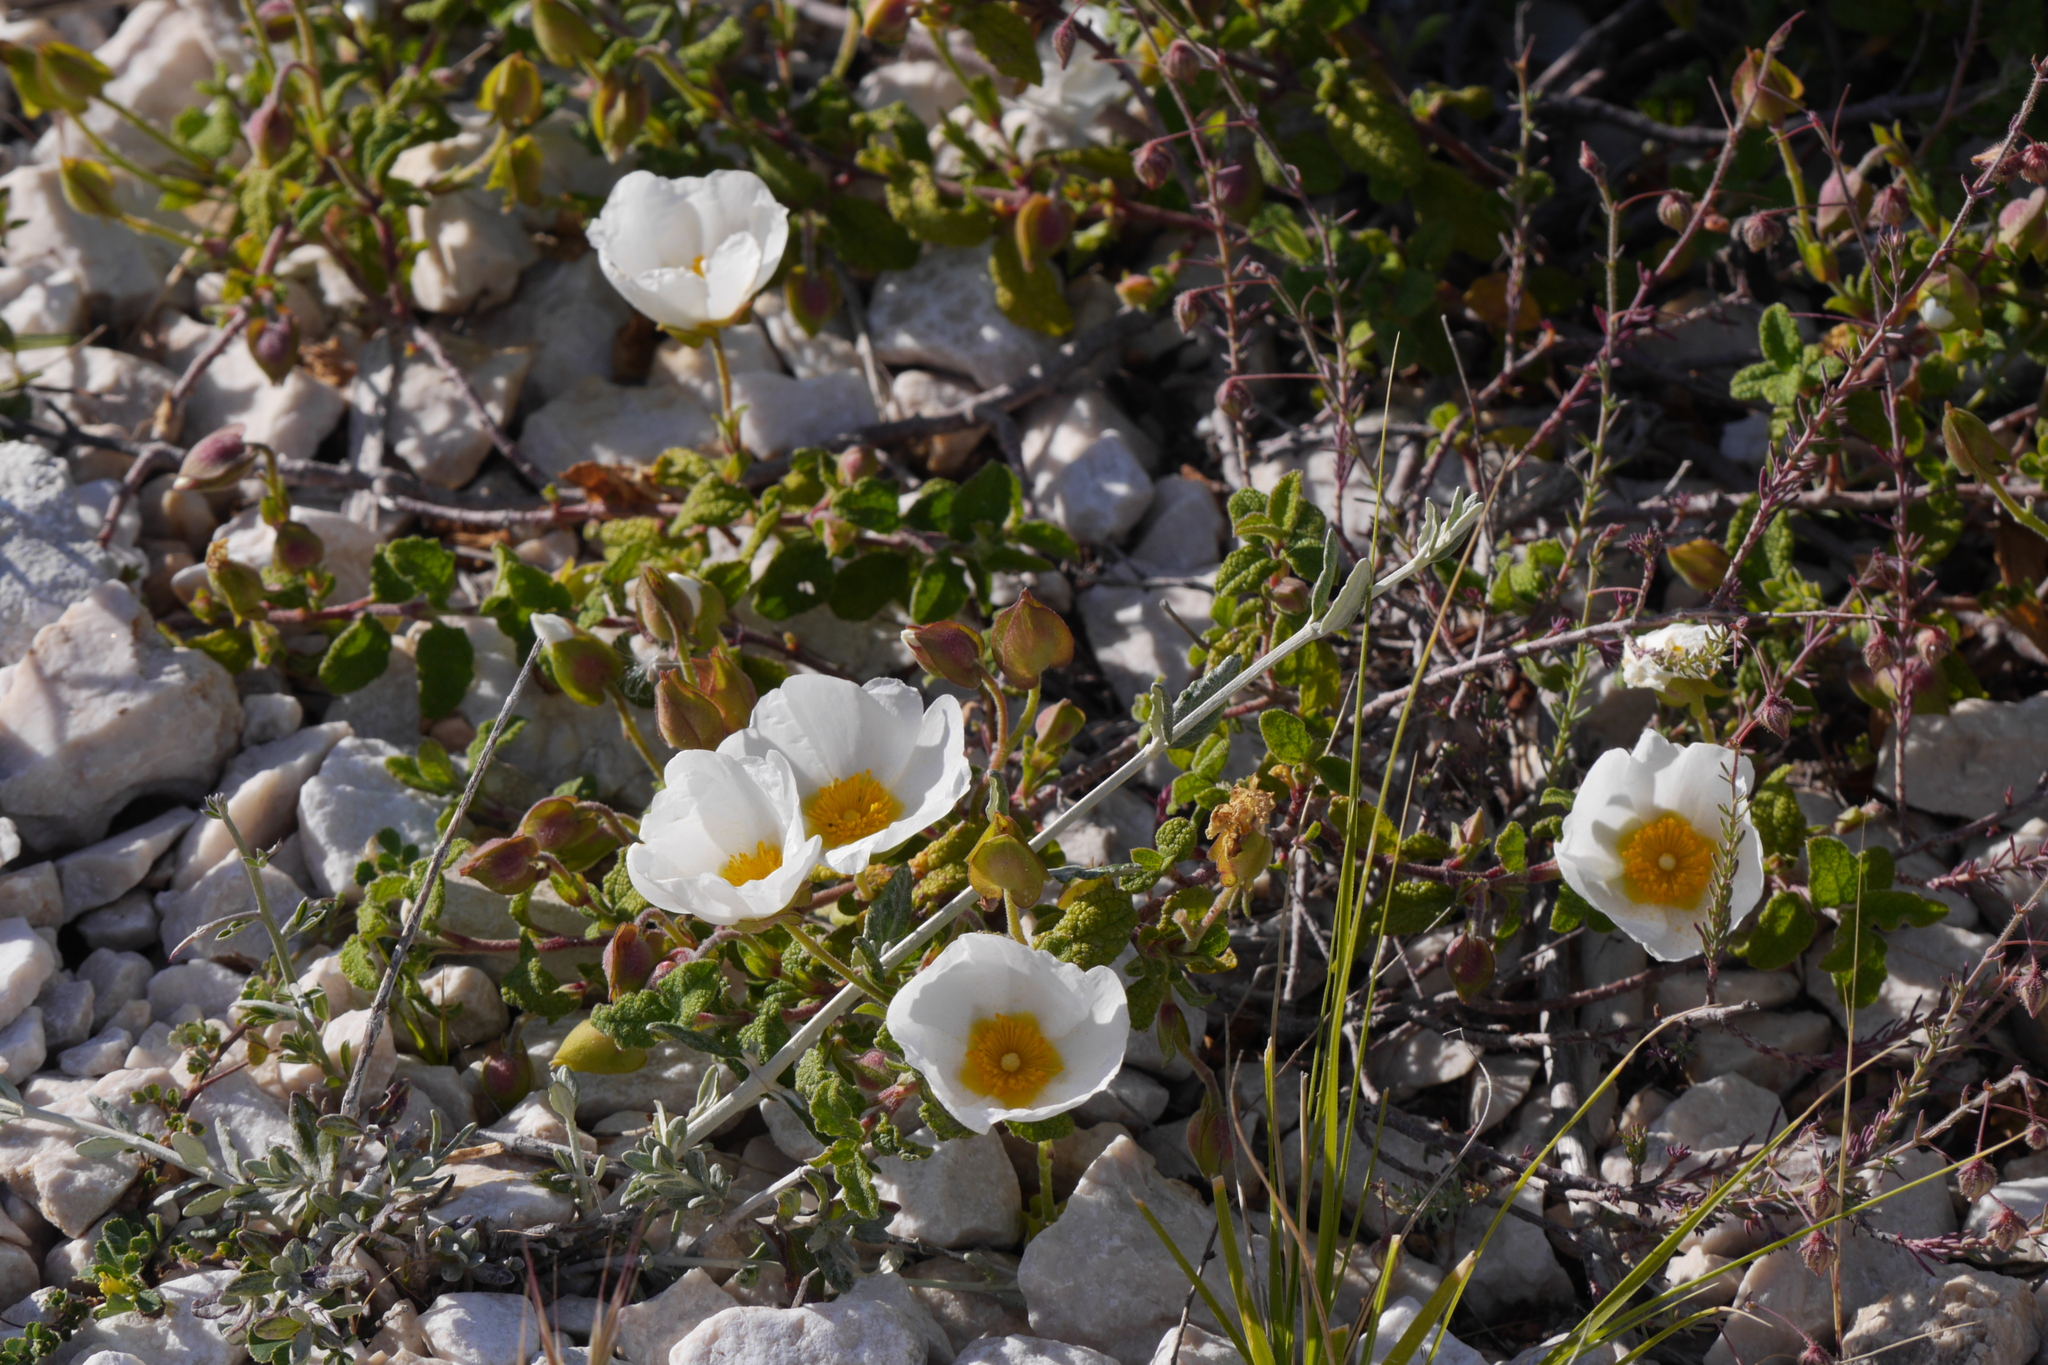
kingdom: Plantae
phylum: Tracheophyta
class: Magnoliopsida
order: Malvales
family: Cistaceae
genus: Cistus
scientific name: Cistus salviifolius
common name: Salvia cistus
